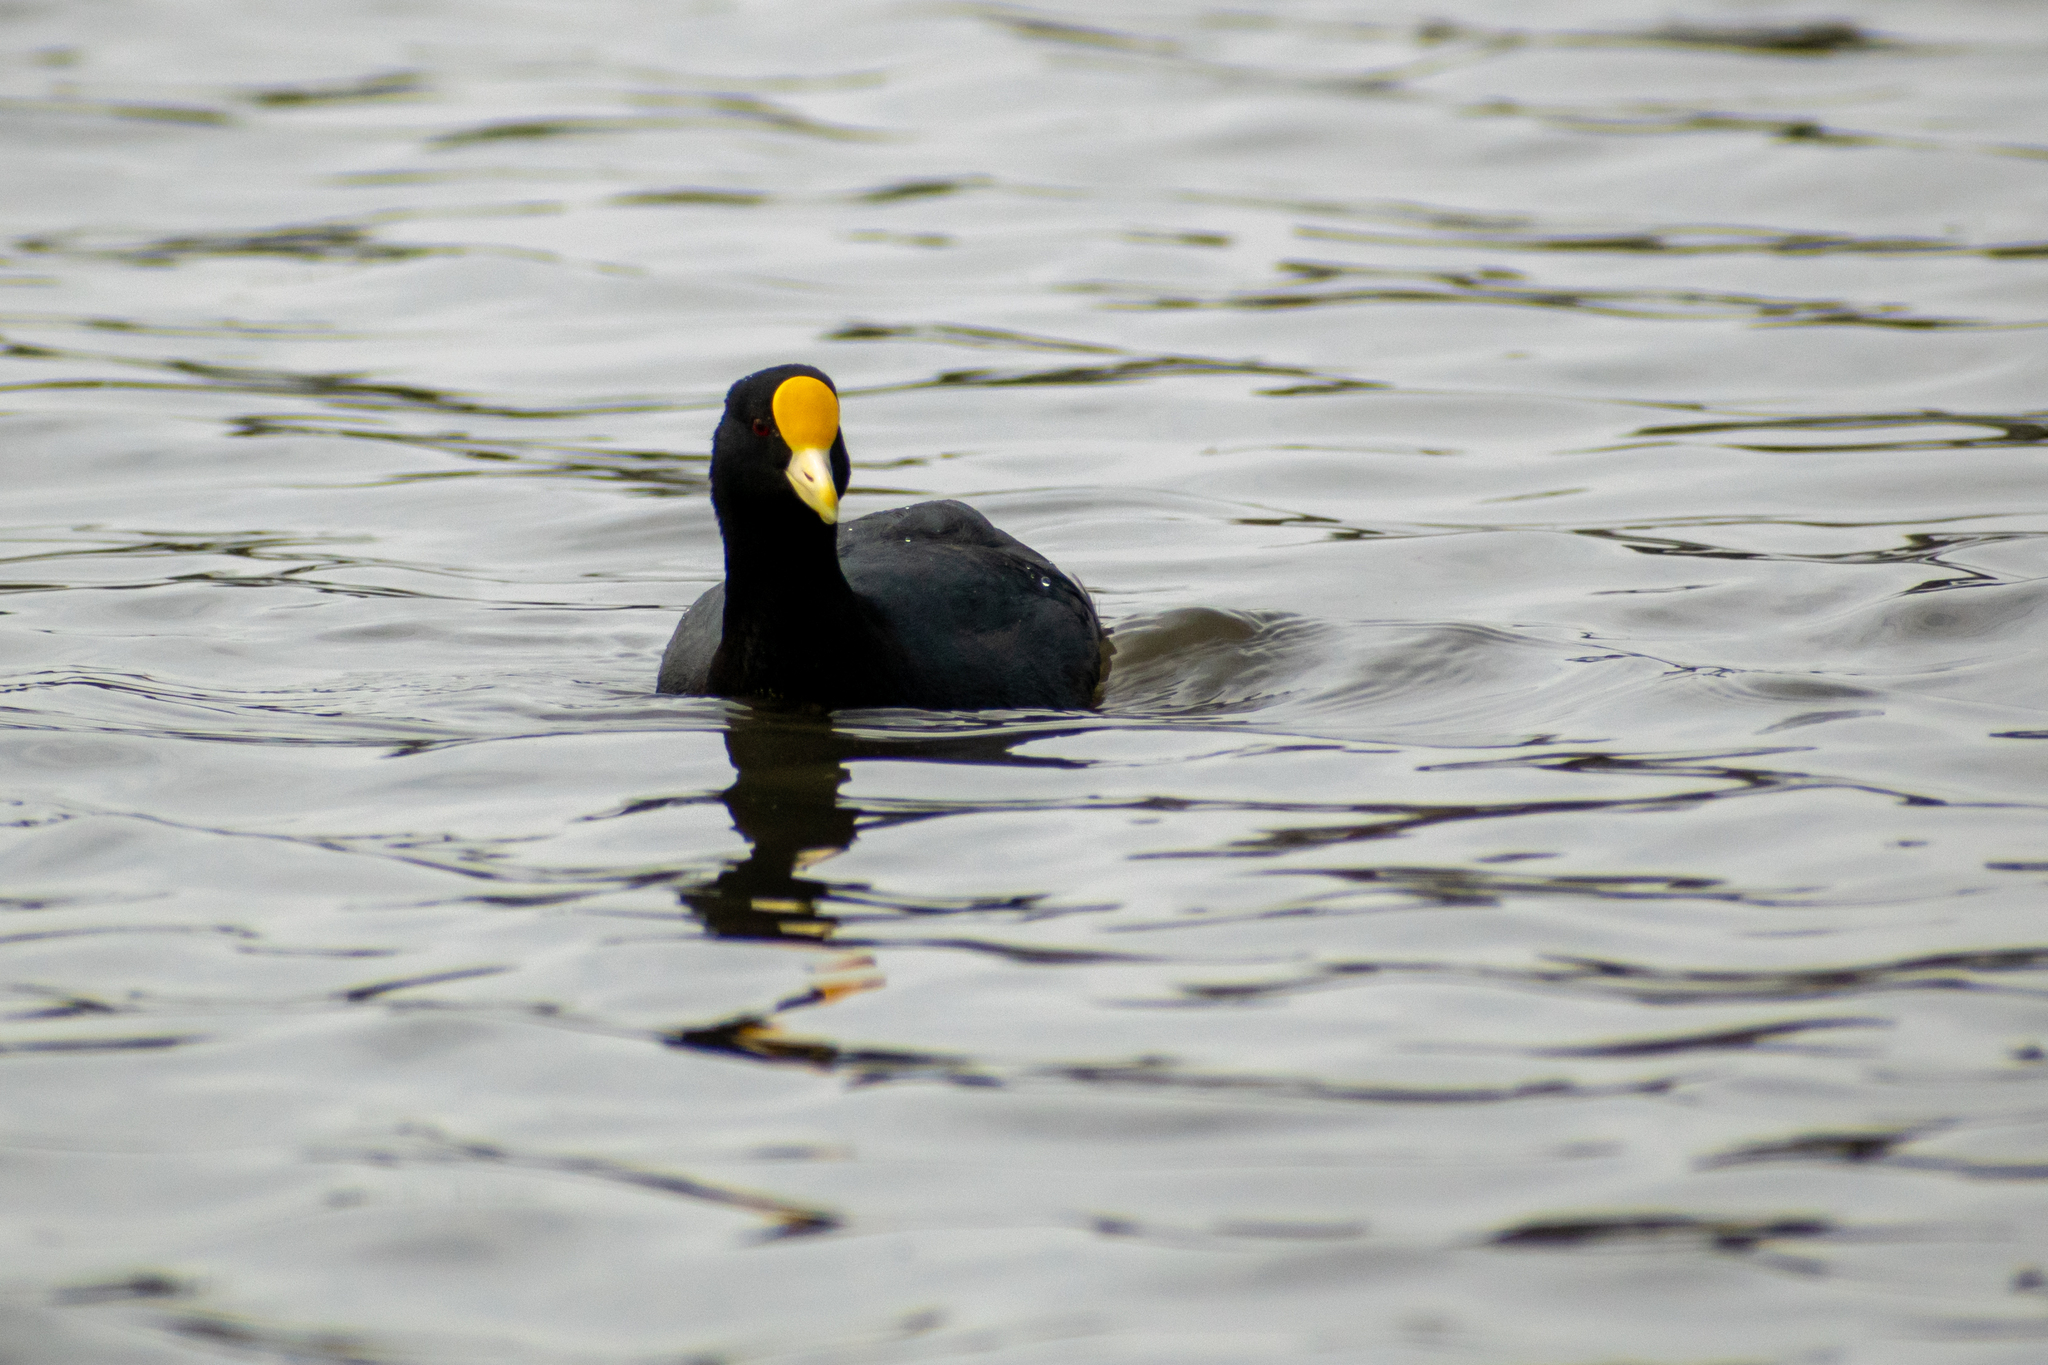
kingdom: Animalia
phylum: Chordata
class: Aves
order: Gruiformes
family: Rallidae
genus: Fulica
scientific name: Fulica leucoptera
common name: White-winged coot
